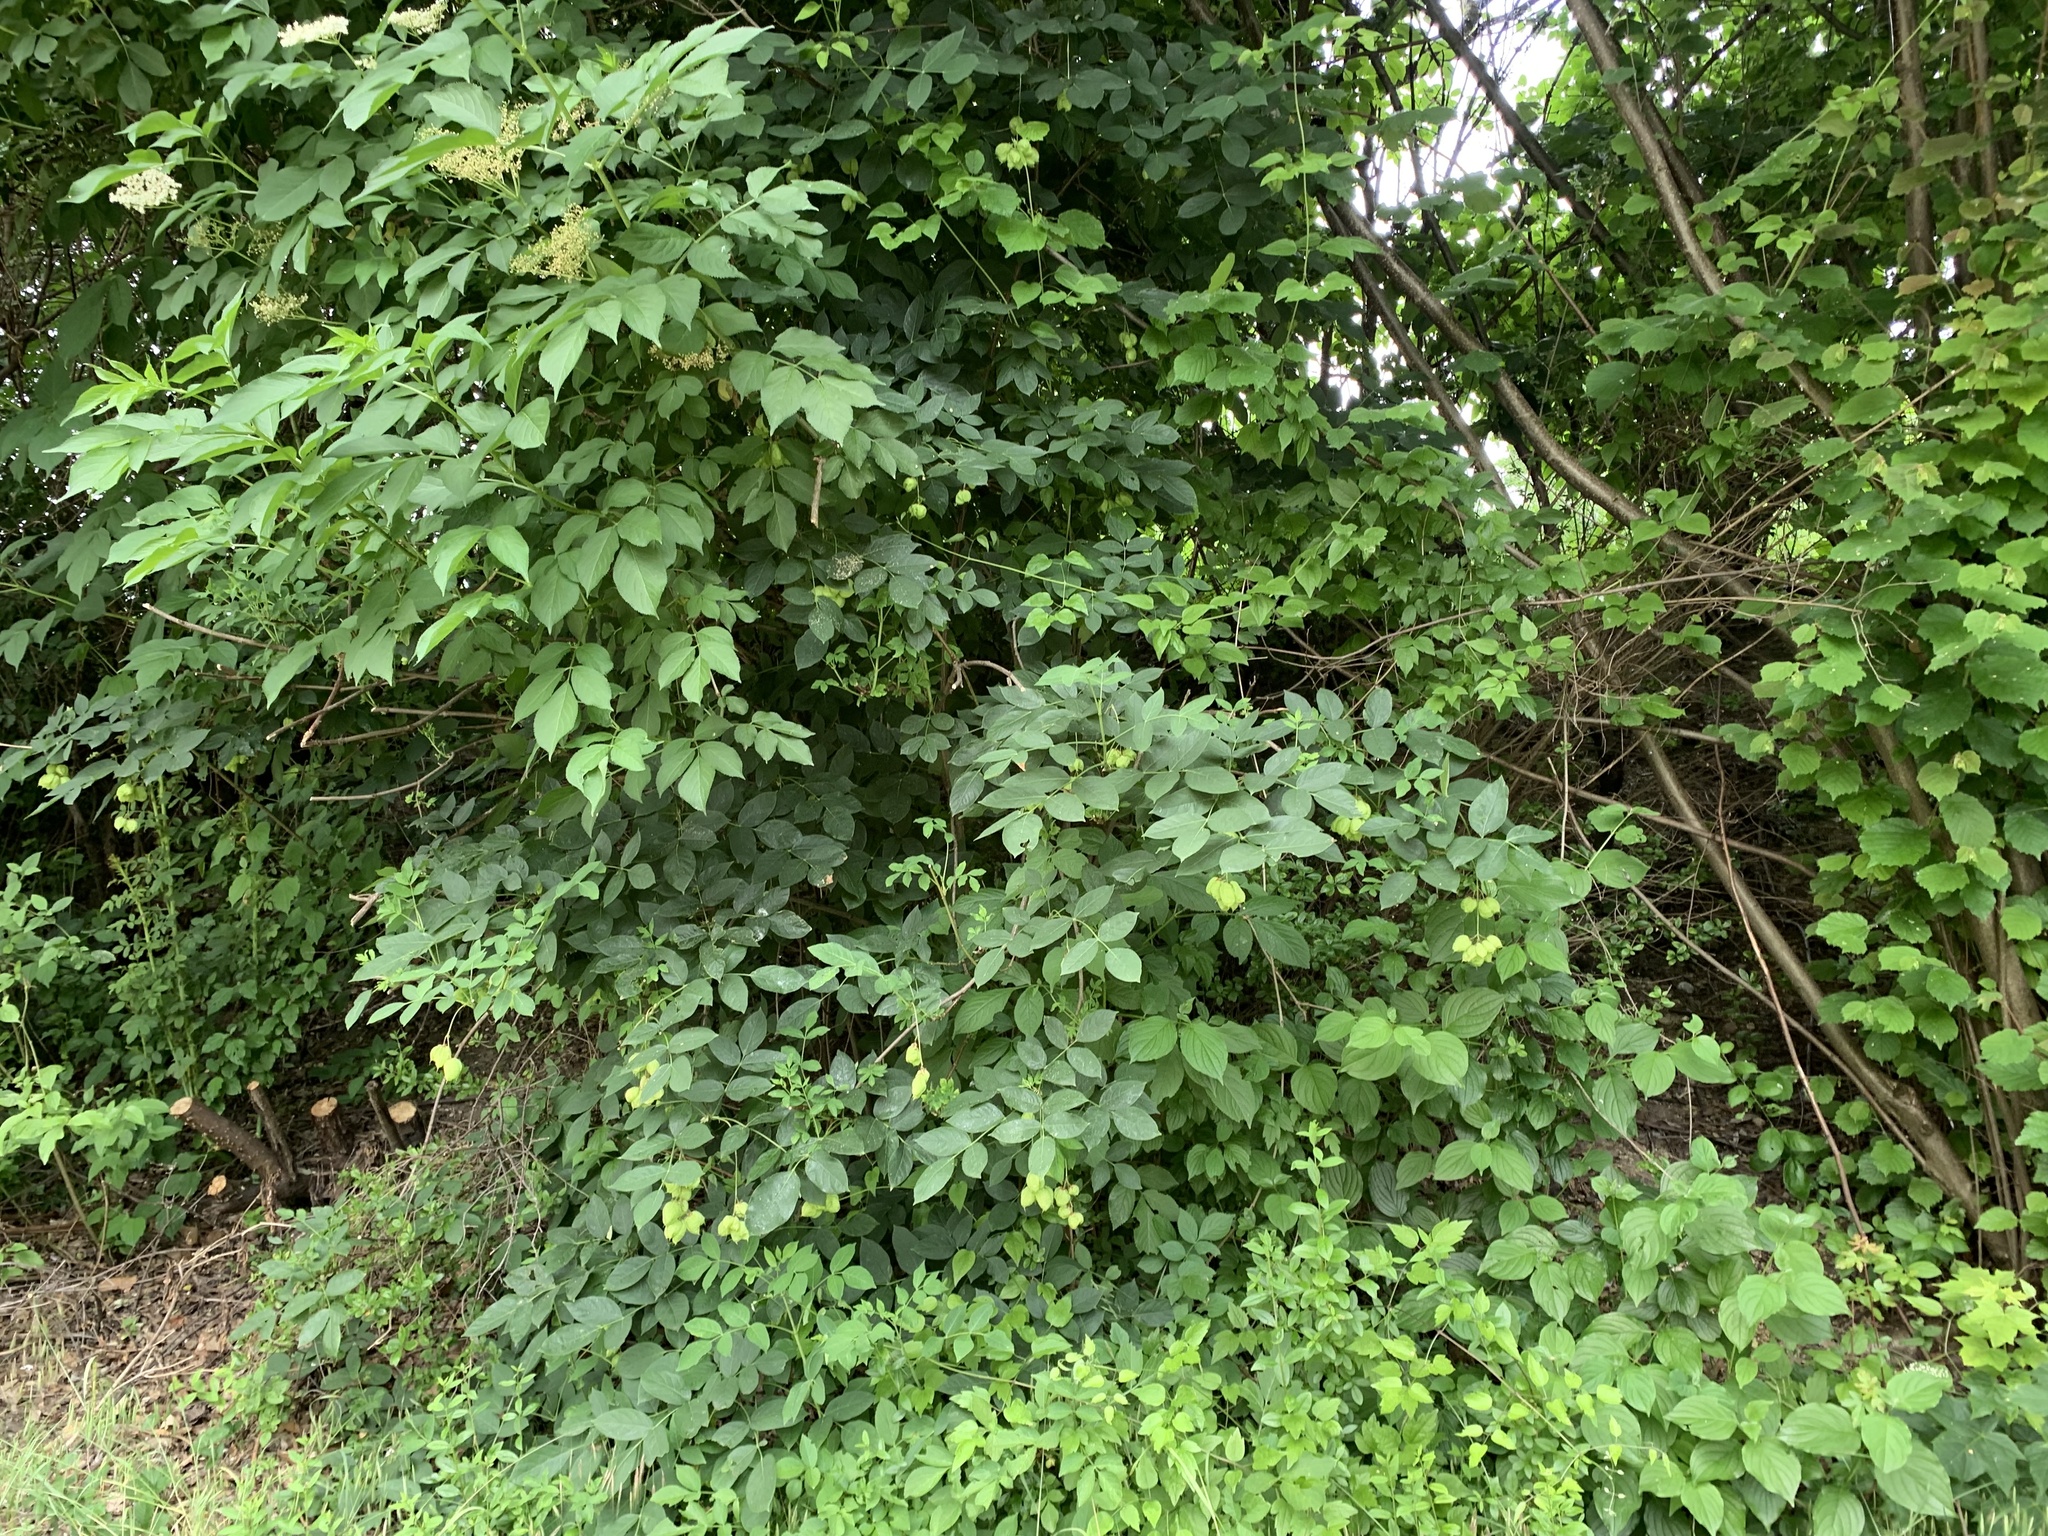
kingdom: Plantae
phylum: Tracheophyta
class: Magnoliopsida
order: Crossosomatales
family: Staphyleaceae
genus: Staphylea
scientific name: Staphylea pinnata
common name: Bladdernut
